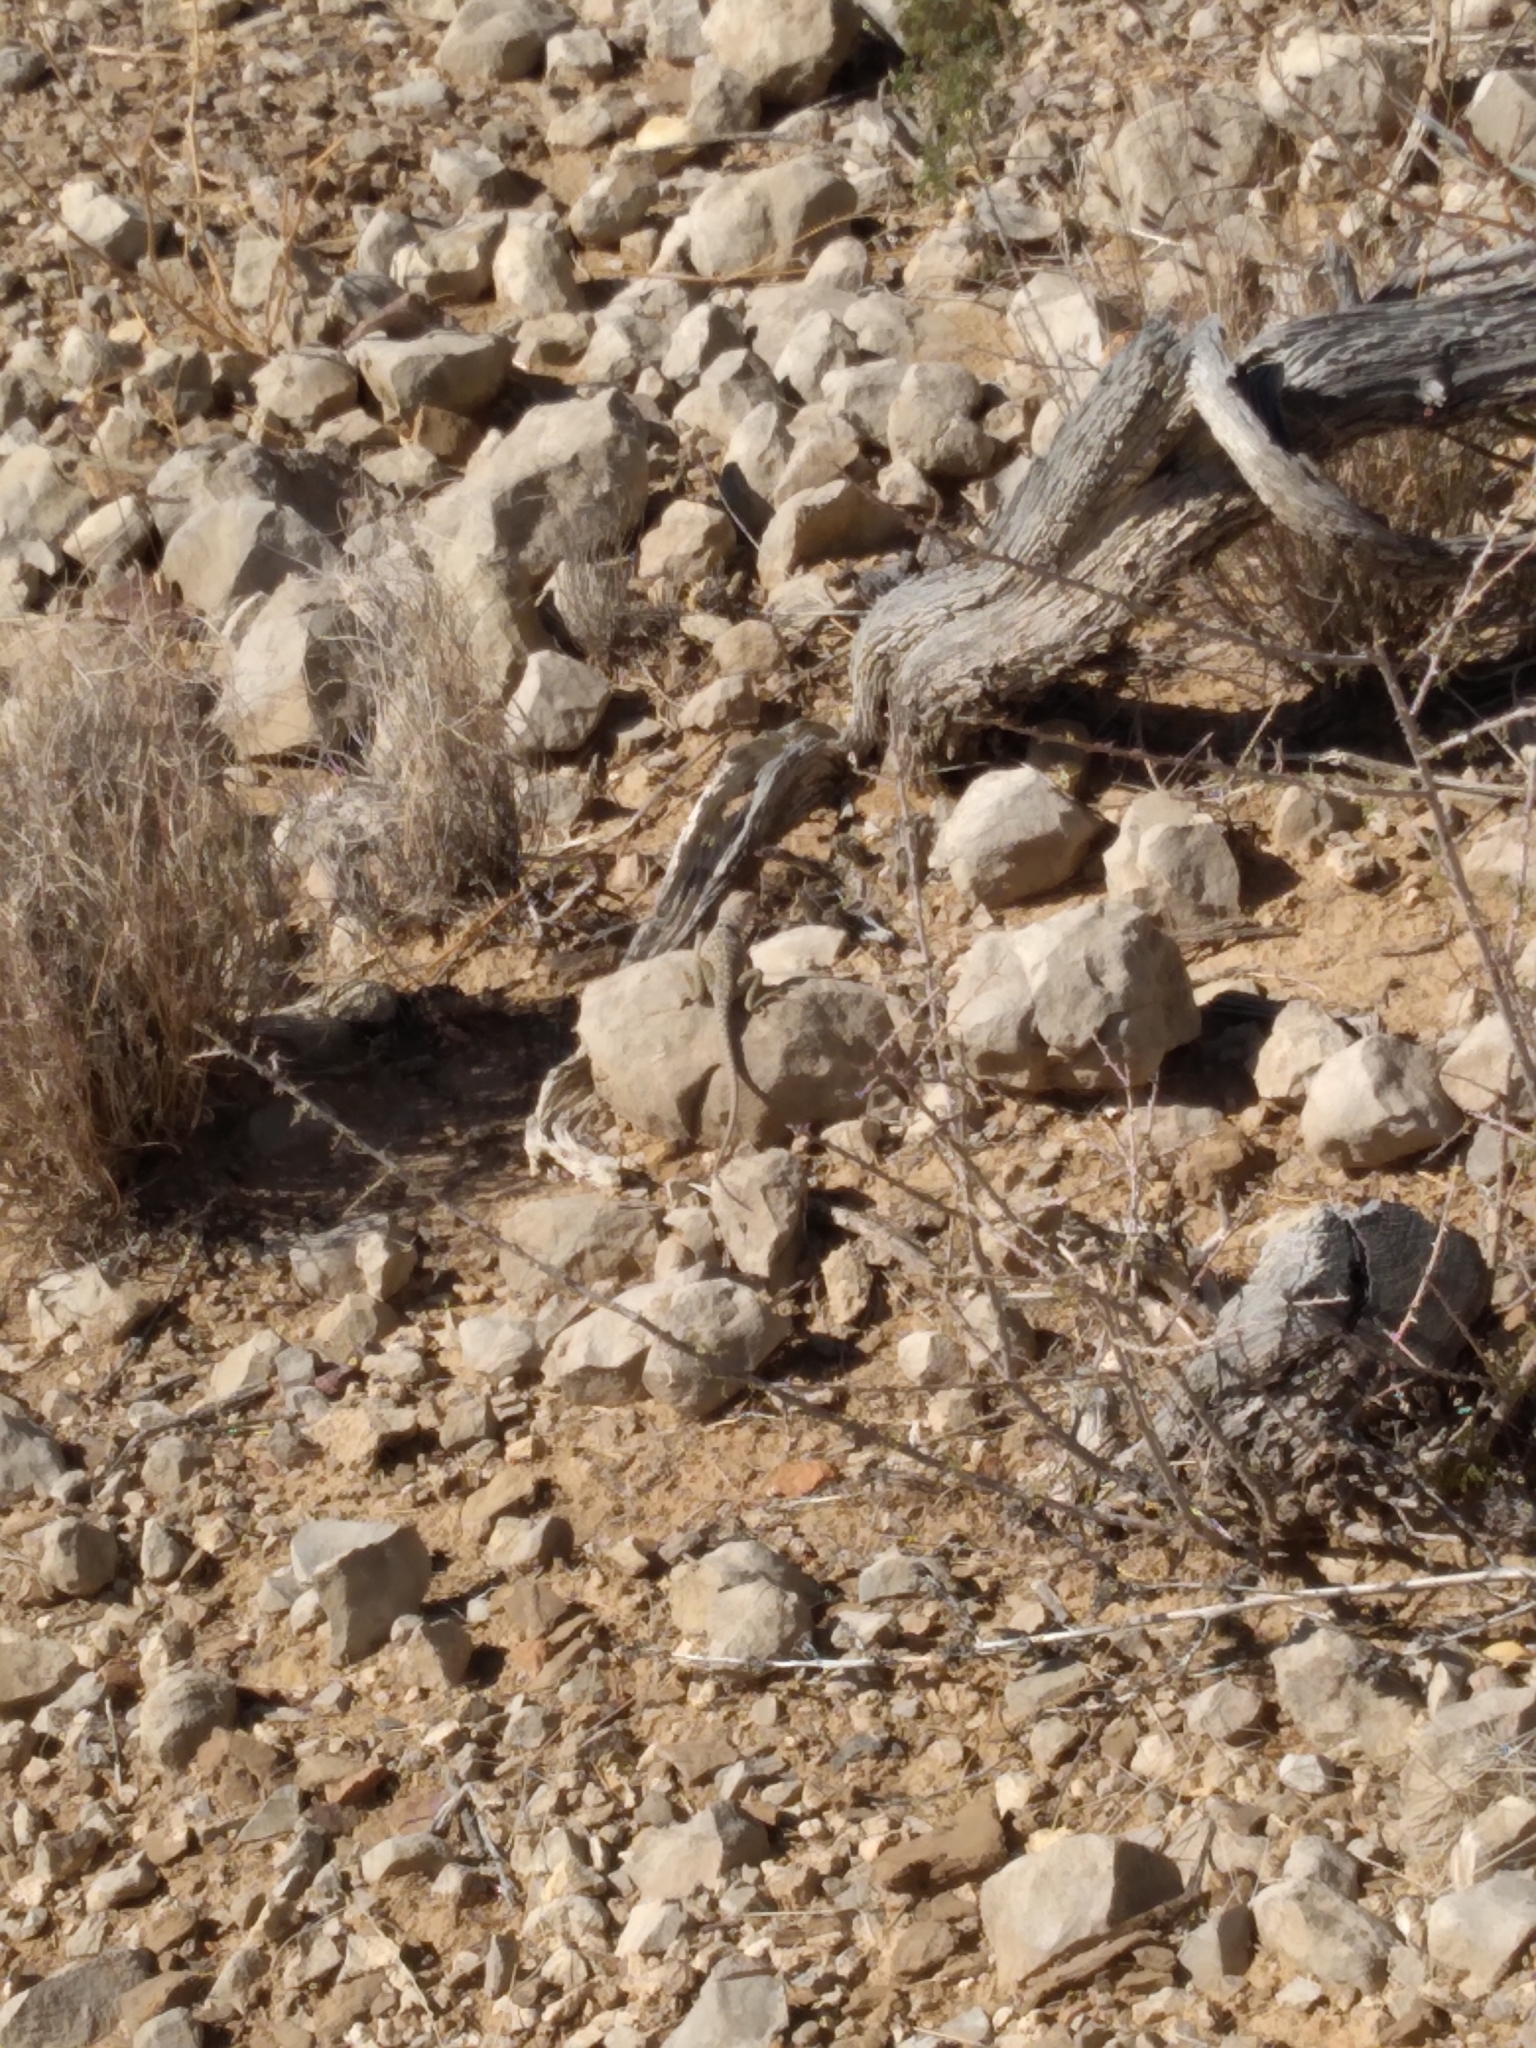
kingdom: Animalia
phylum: Chordata
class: Squamata
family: Crotaphytidae
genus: Crotaphytus
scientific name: Crotaphytus collaris
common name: Collared lizard
